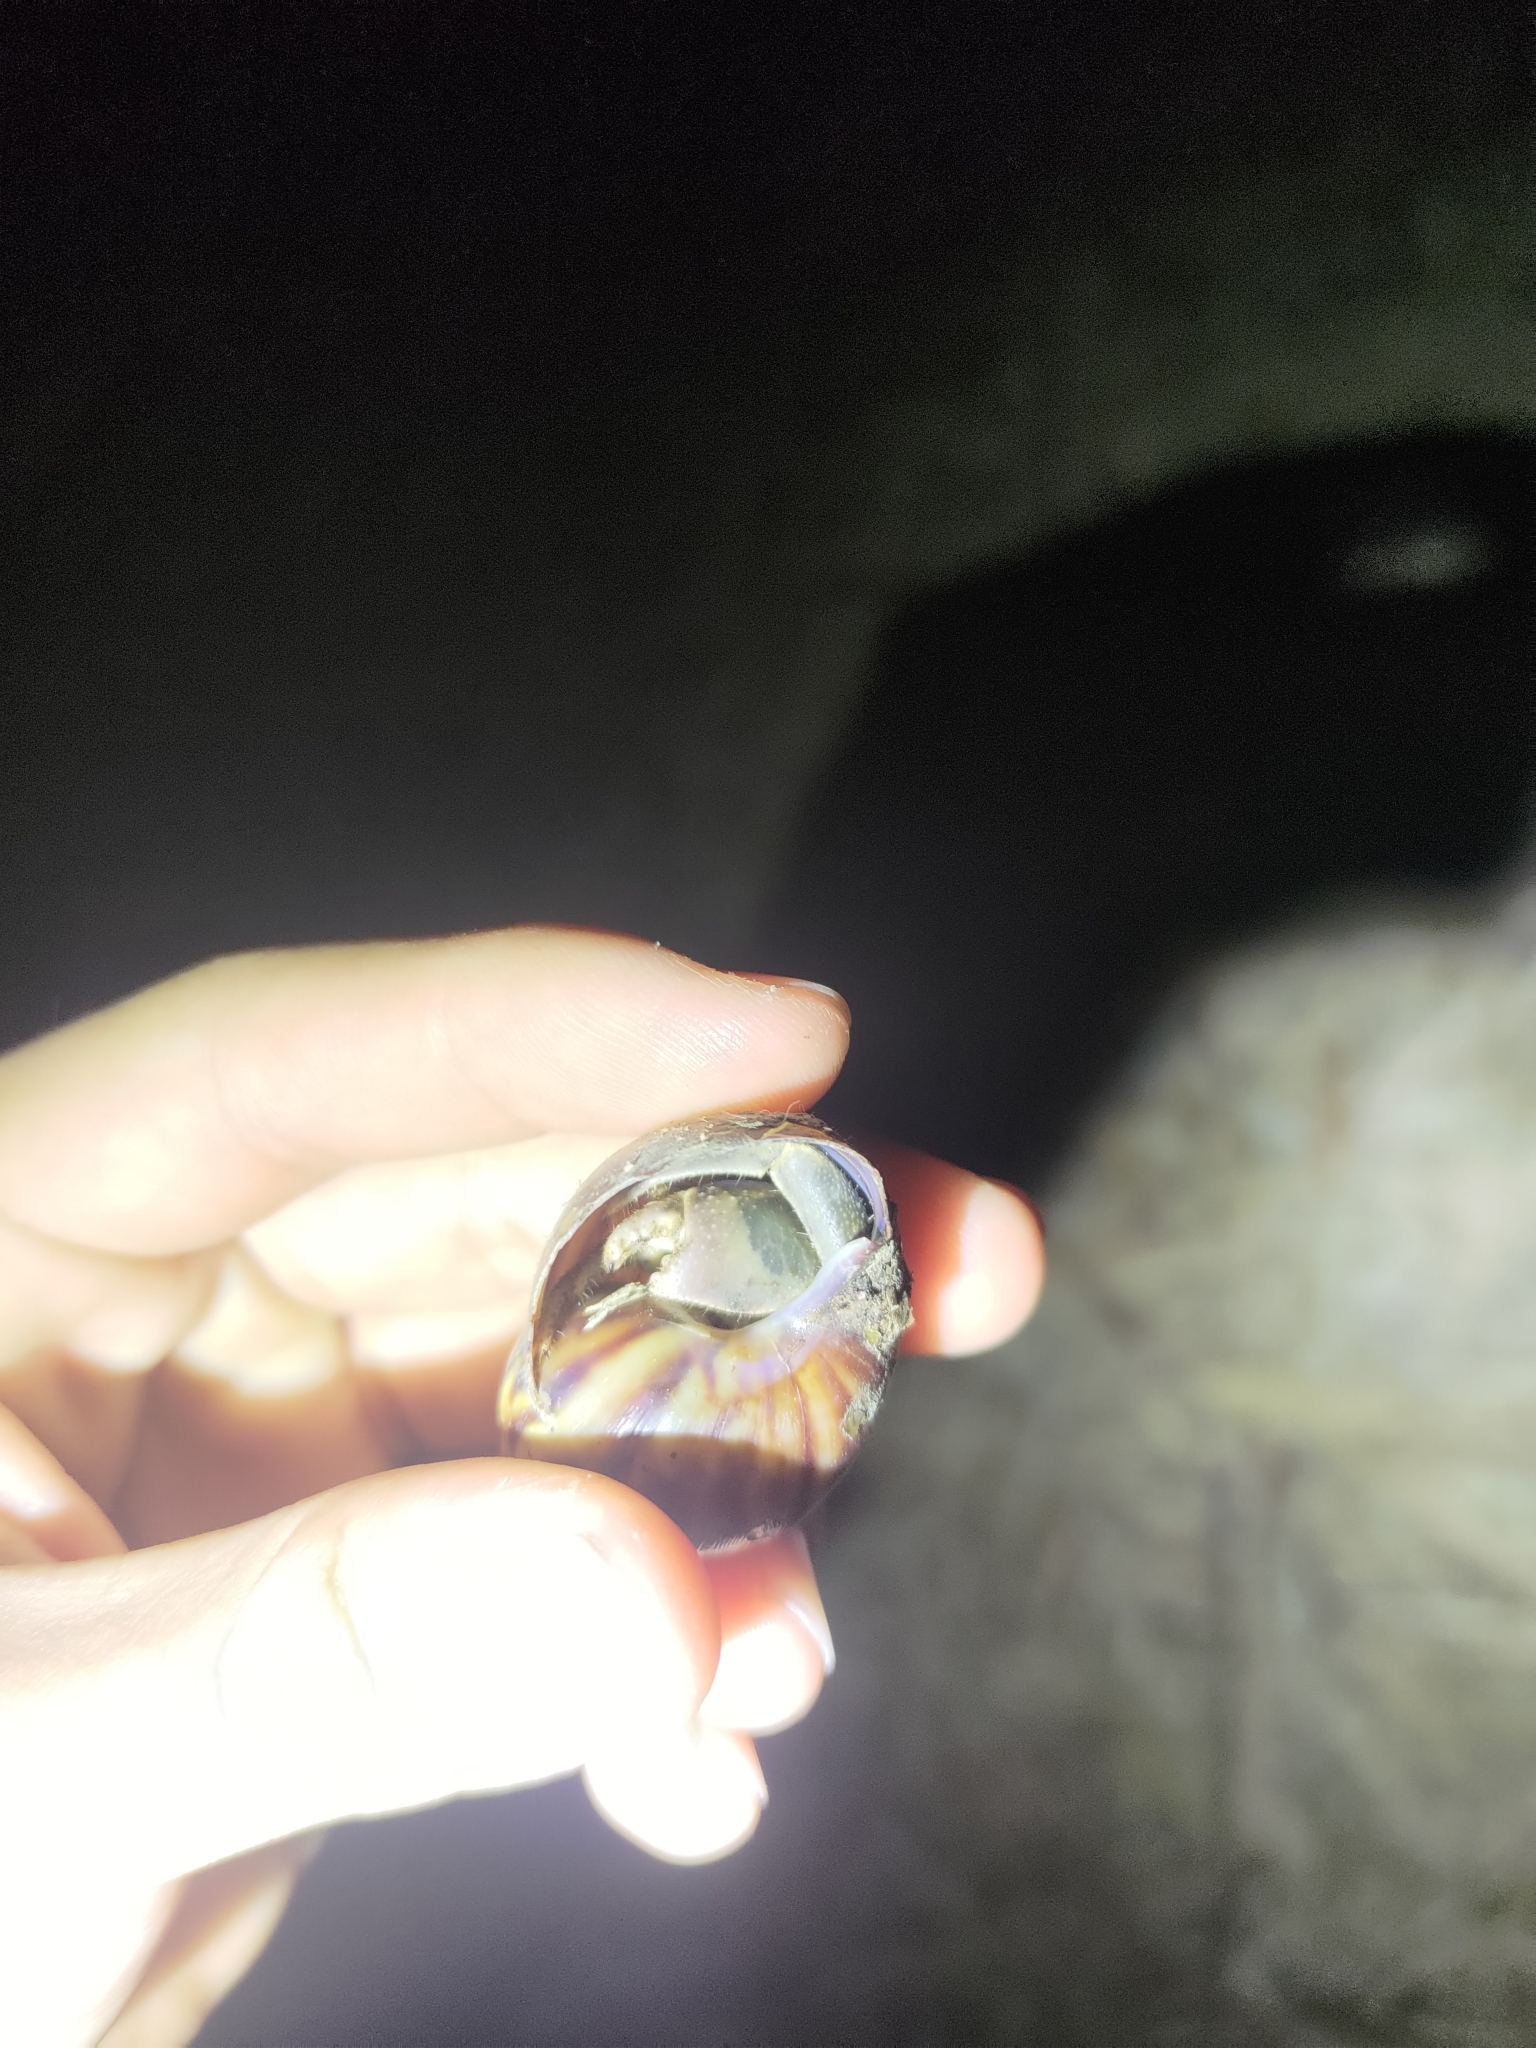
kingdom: Animalia
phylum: Arthropoda
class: Malacostraca
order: Decapoda
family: Coenobitidae
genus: Coenobita
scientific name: Coenobita cavipes
